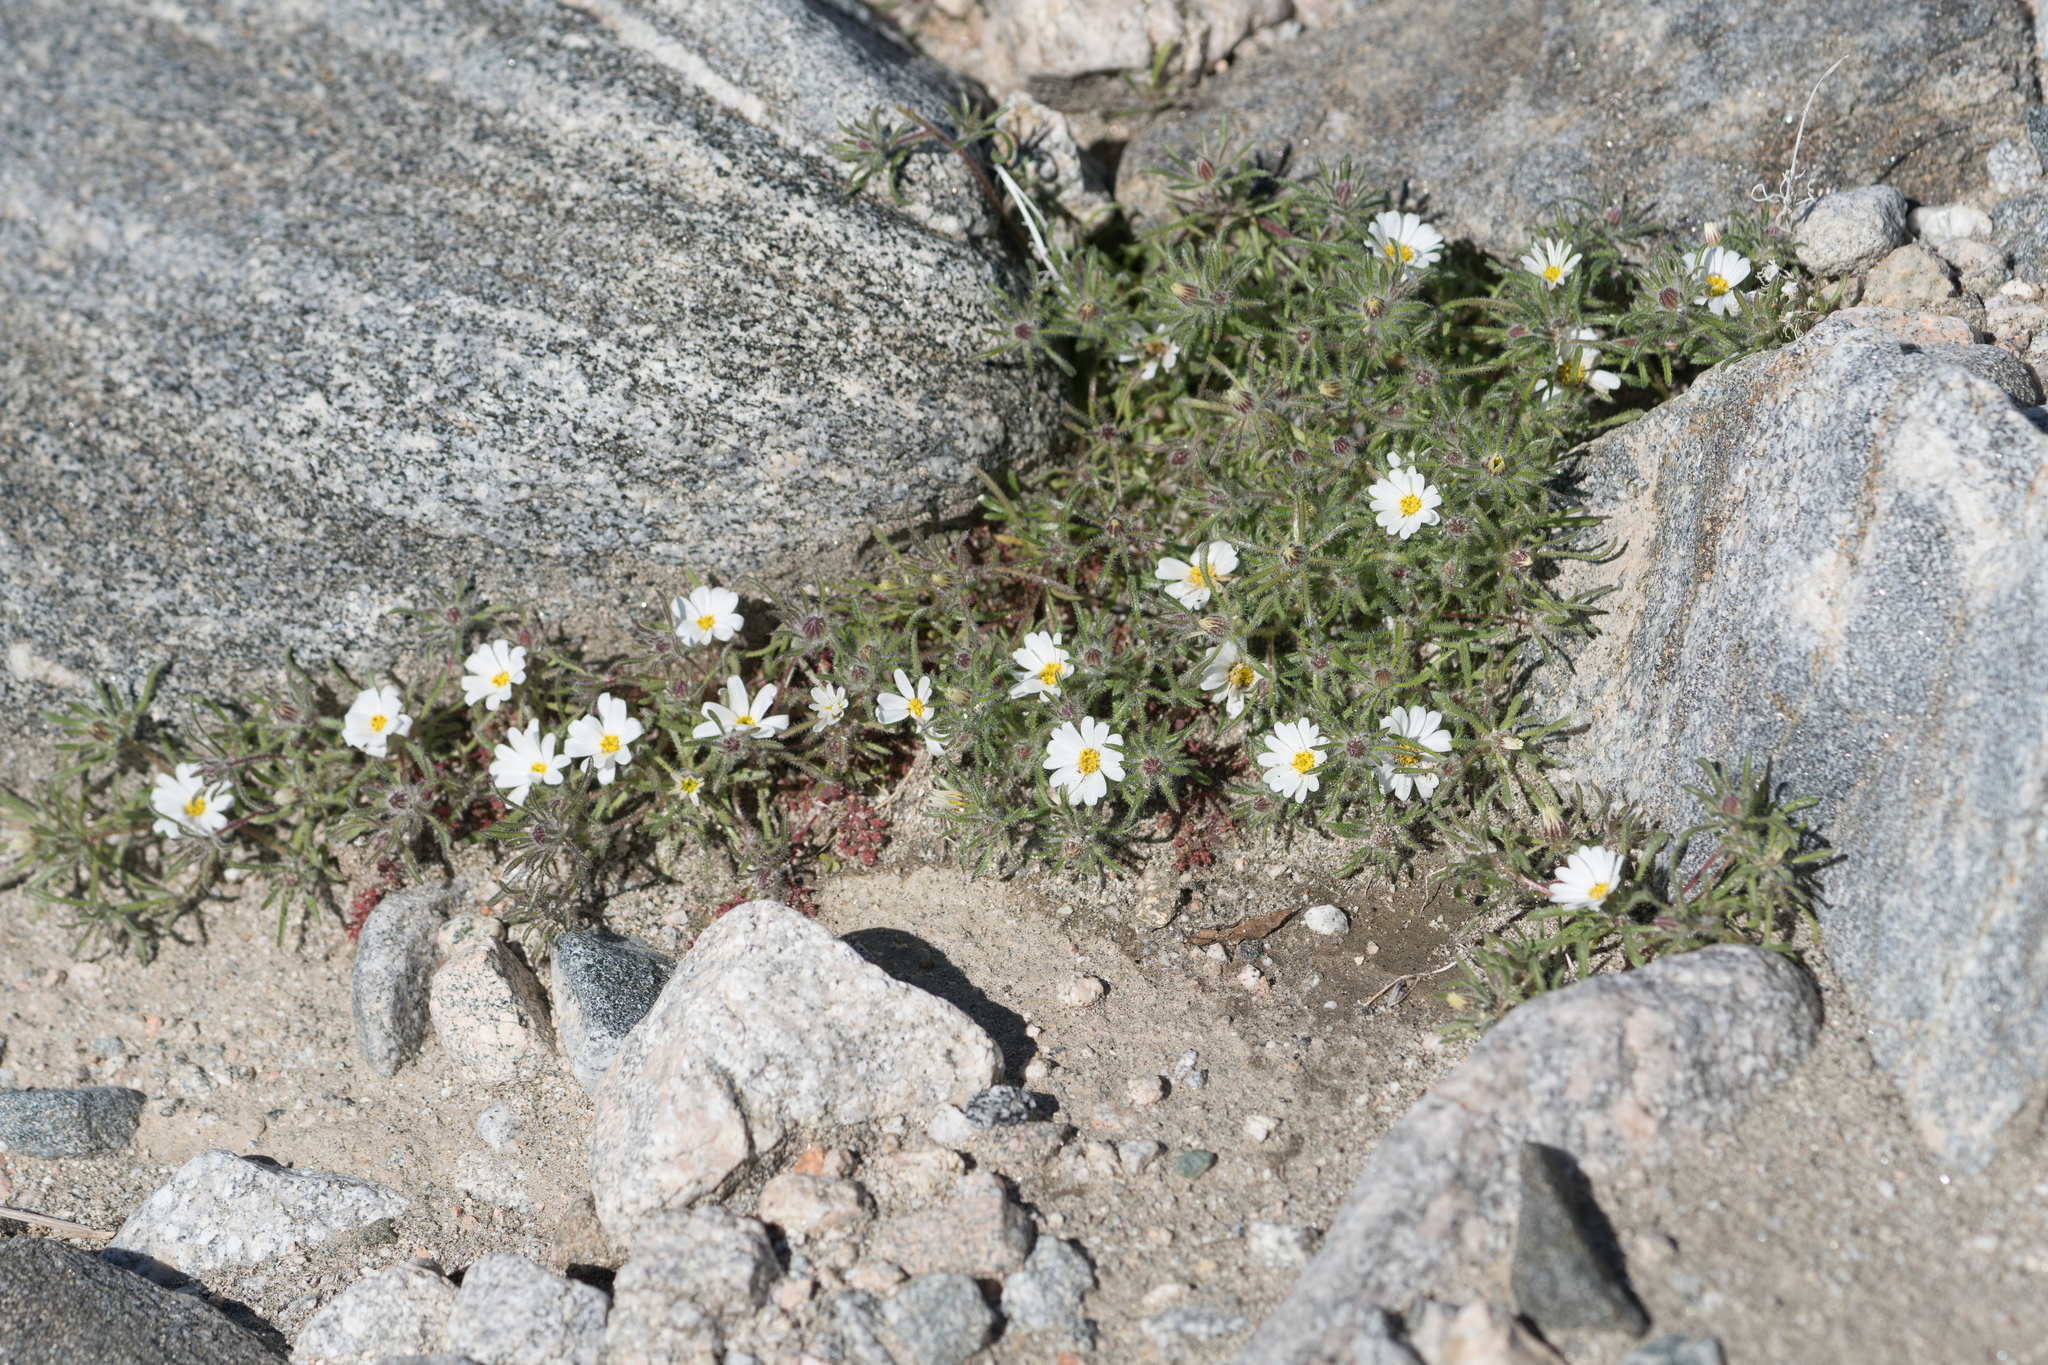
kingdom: Plantae
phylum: Tracheophyta
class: Magnoliopsida
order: Asterales
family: Asteraceae
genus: Monoptilon
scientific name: Monoptilon bellioides
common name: Bristly desertstar
